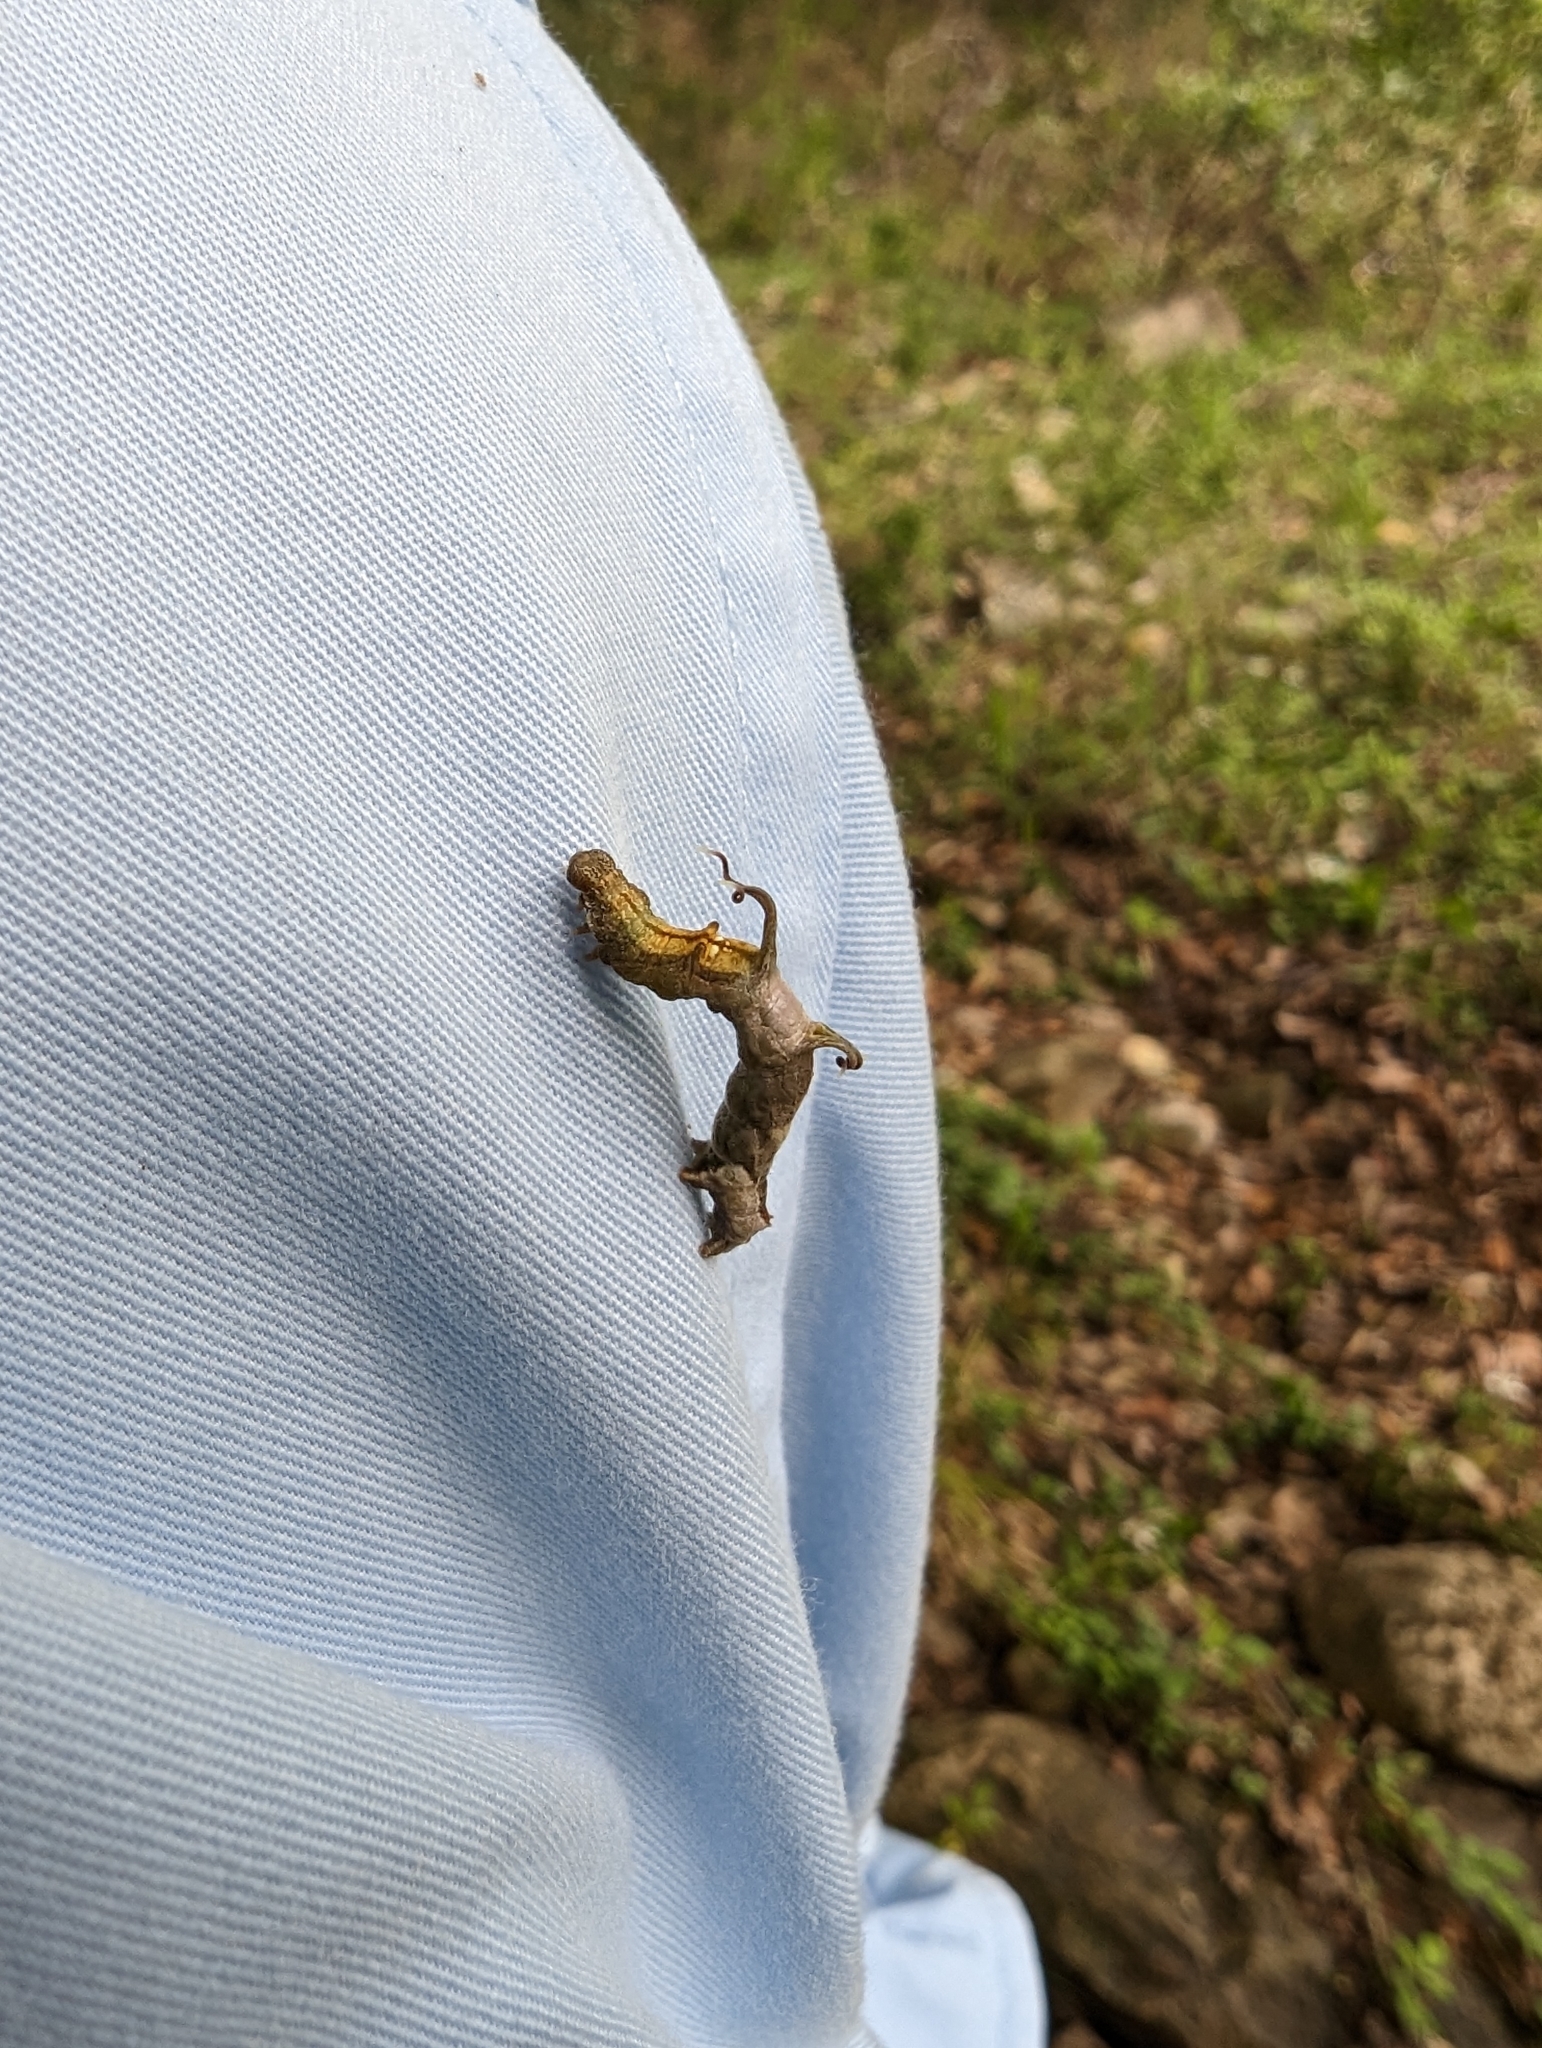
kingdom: Animalia
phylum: Arthropoda
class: Insecta
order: Lepidoptera
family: Geometridae
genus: Nematocampa
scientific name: Nematocampa resistaria
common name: Horned spanworm moth
